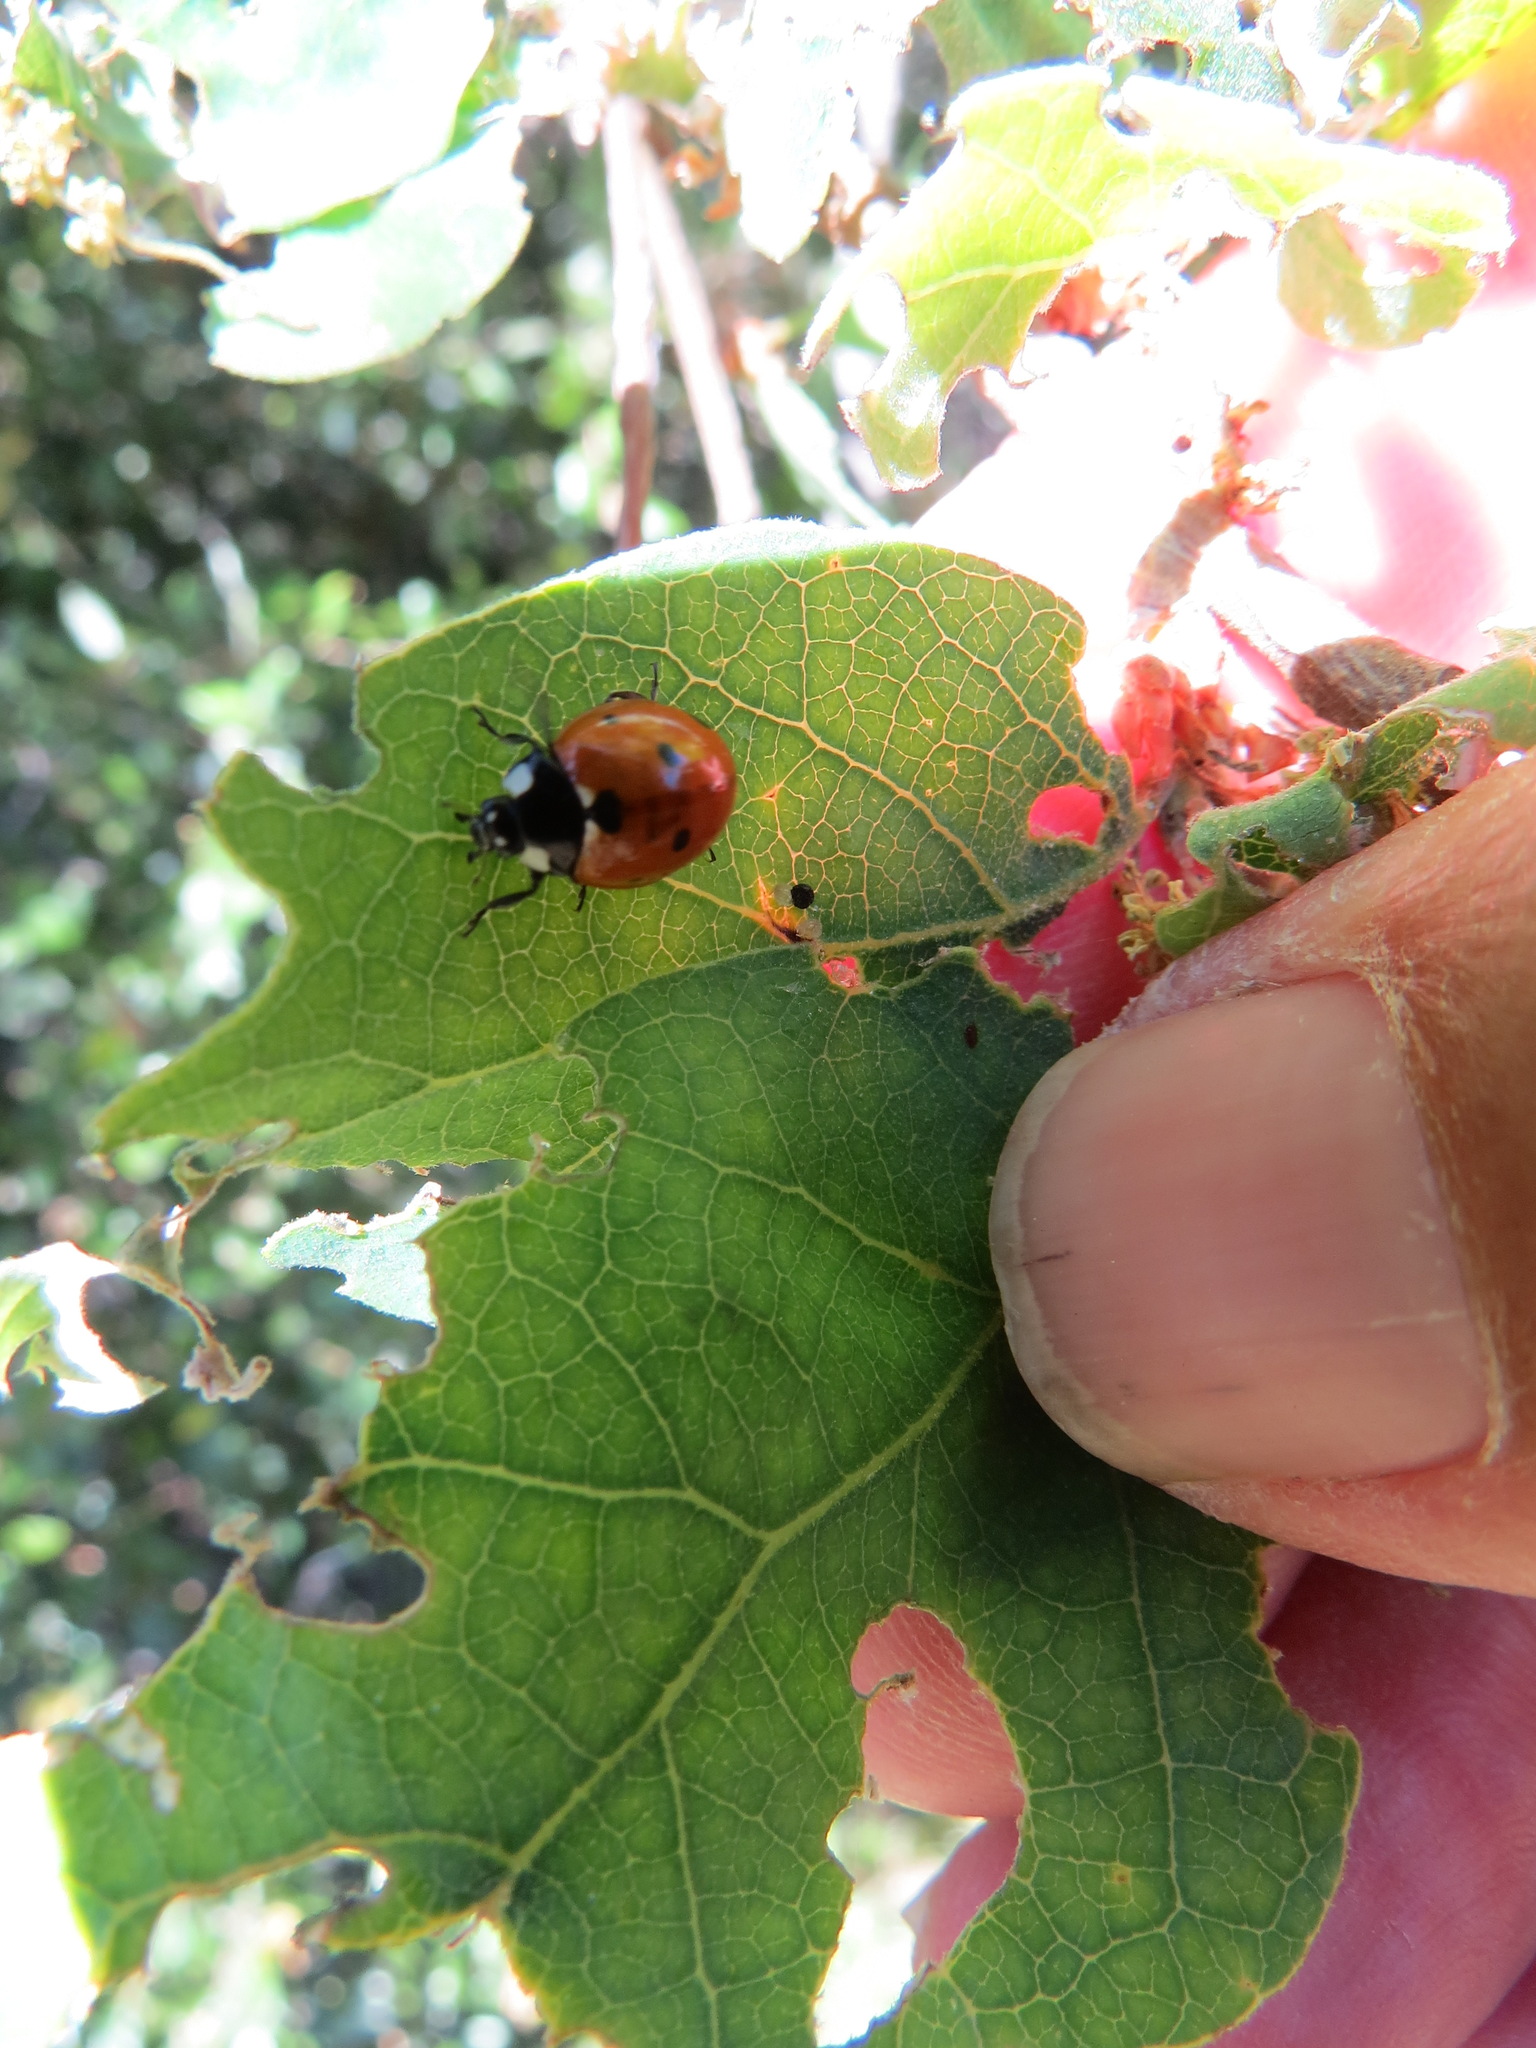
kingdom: Animalia
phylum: Arthropoda
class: Insecta
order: Coleoptera
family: Coccinellidae
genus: Coccinella
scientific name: Coccinella septempunctata
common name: Sevenspotted lady beetle
